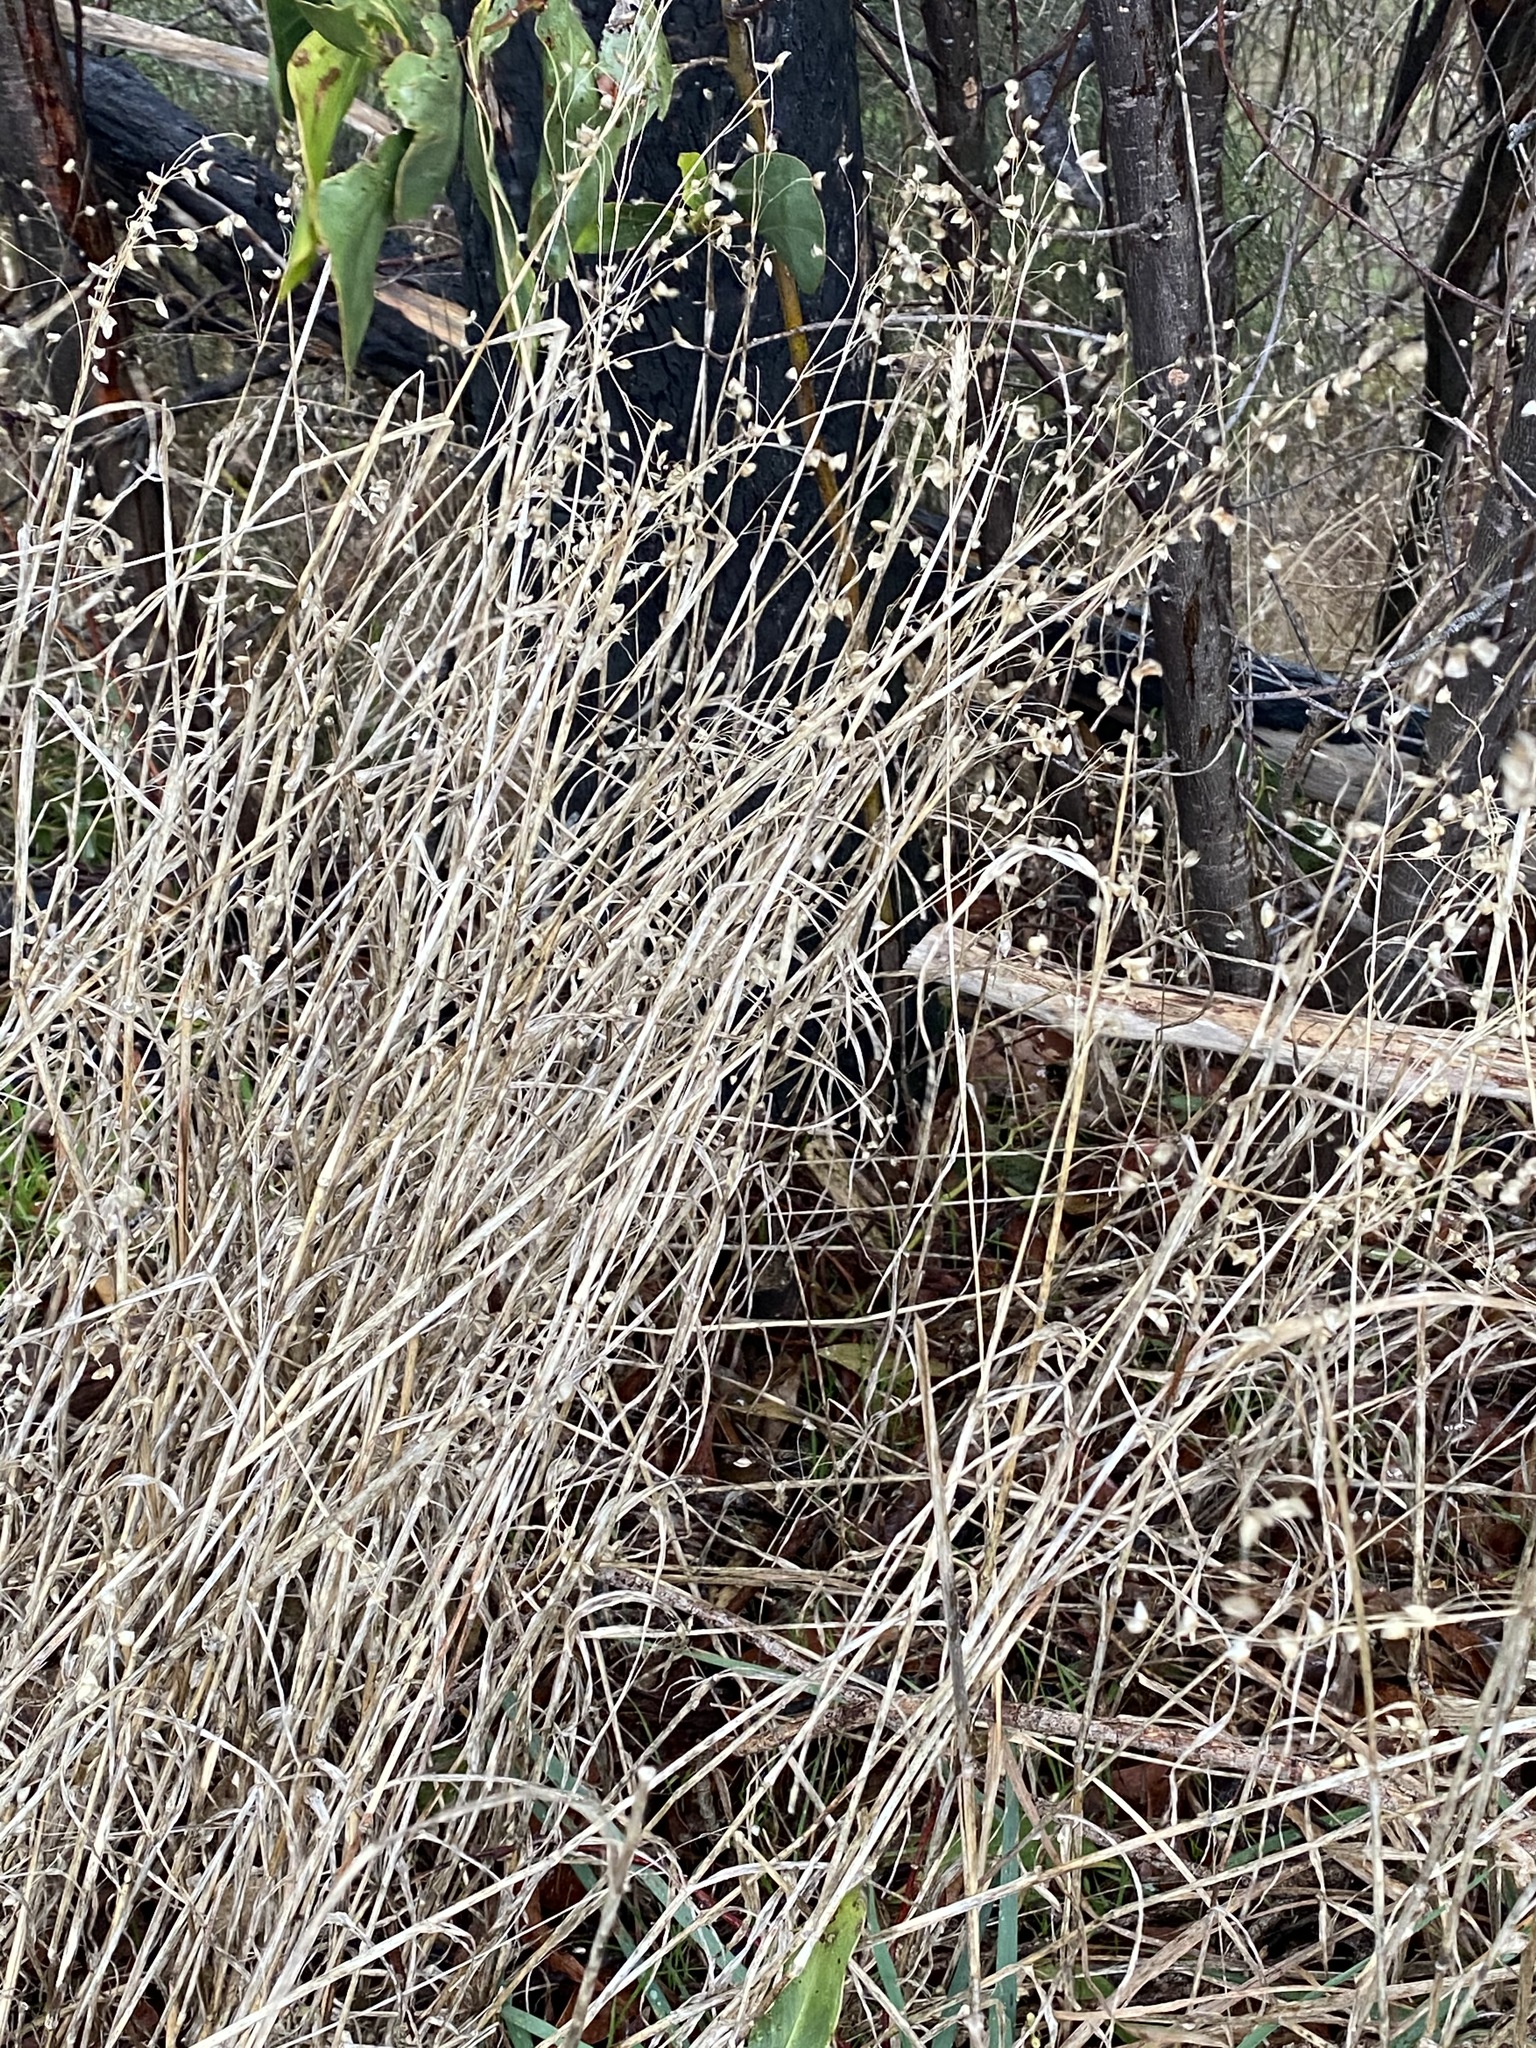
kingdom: Plantae
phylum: Tracheophyta
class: Liliopsida
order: Poales
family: Poaceae
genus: Briza
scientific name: Briza maxima
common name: Big quakinggrass
